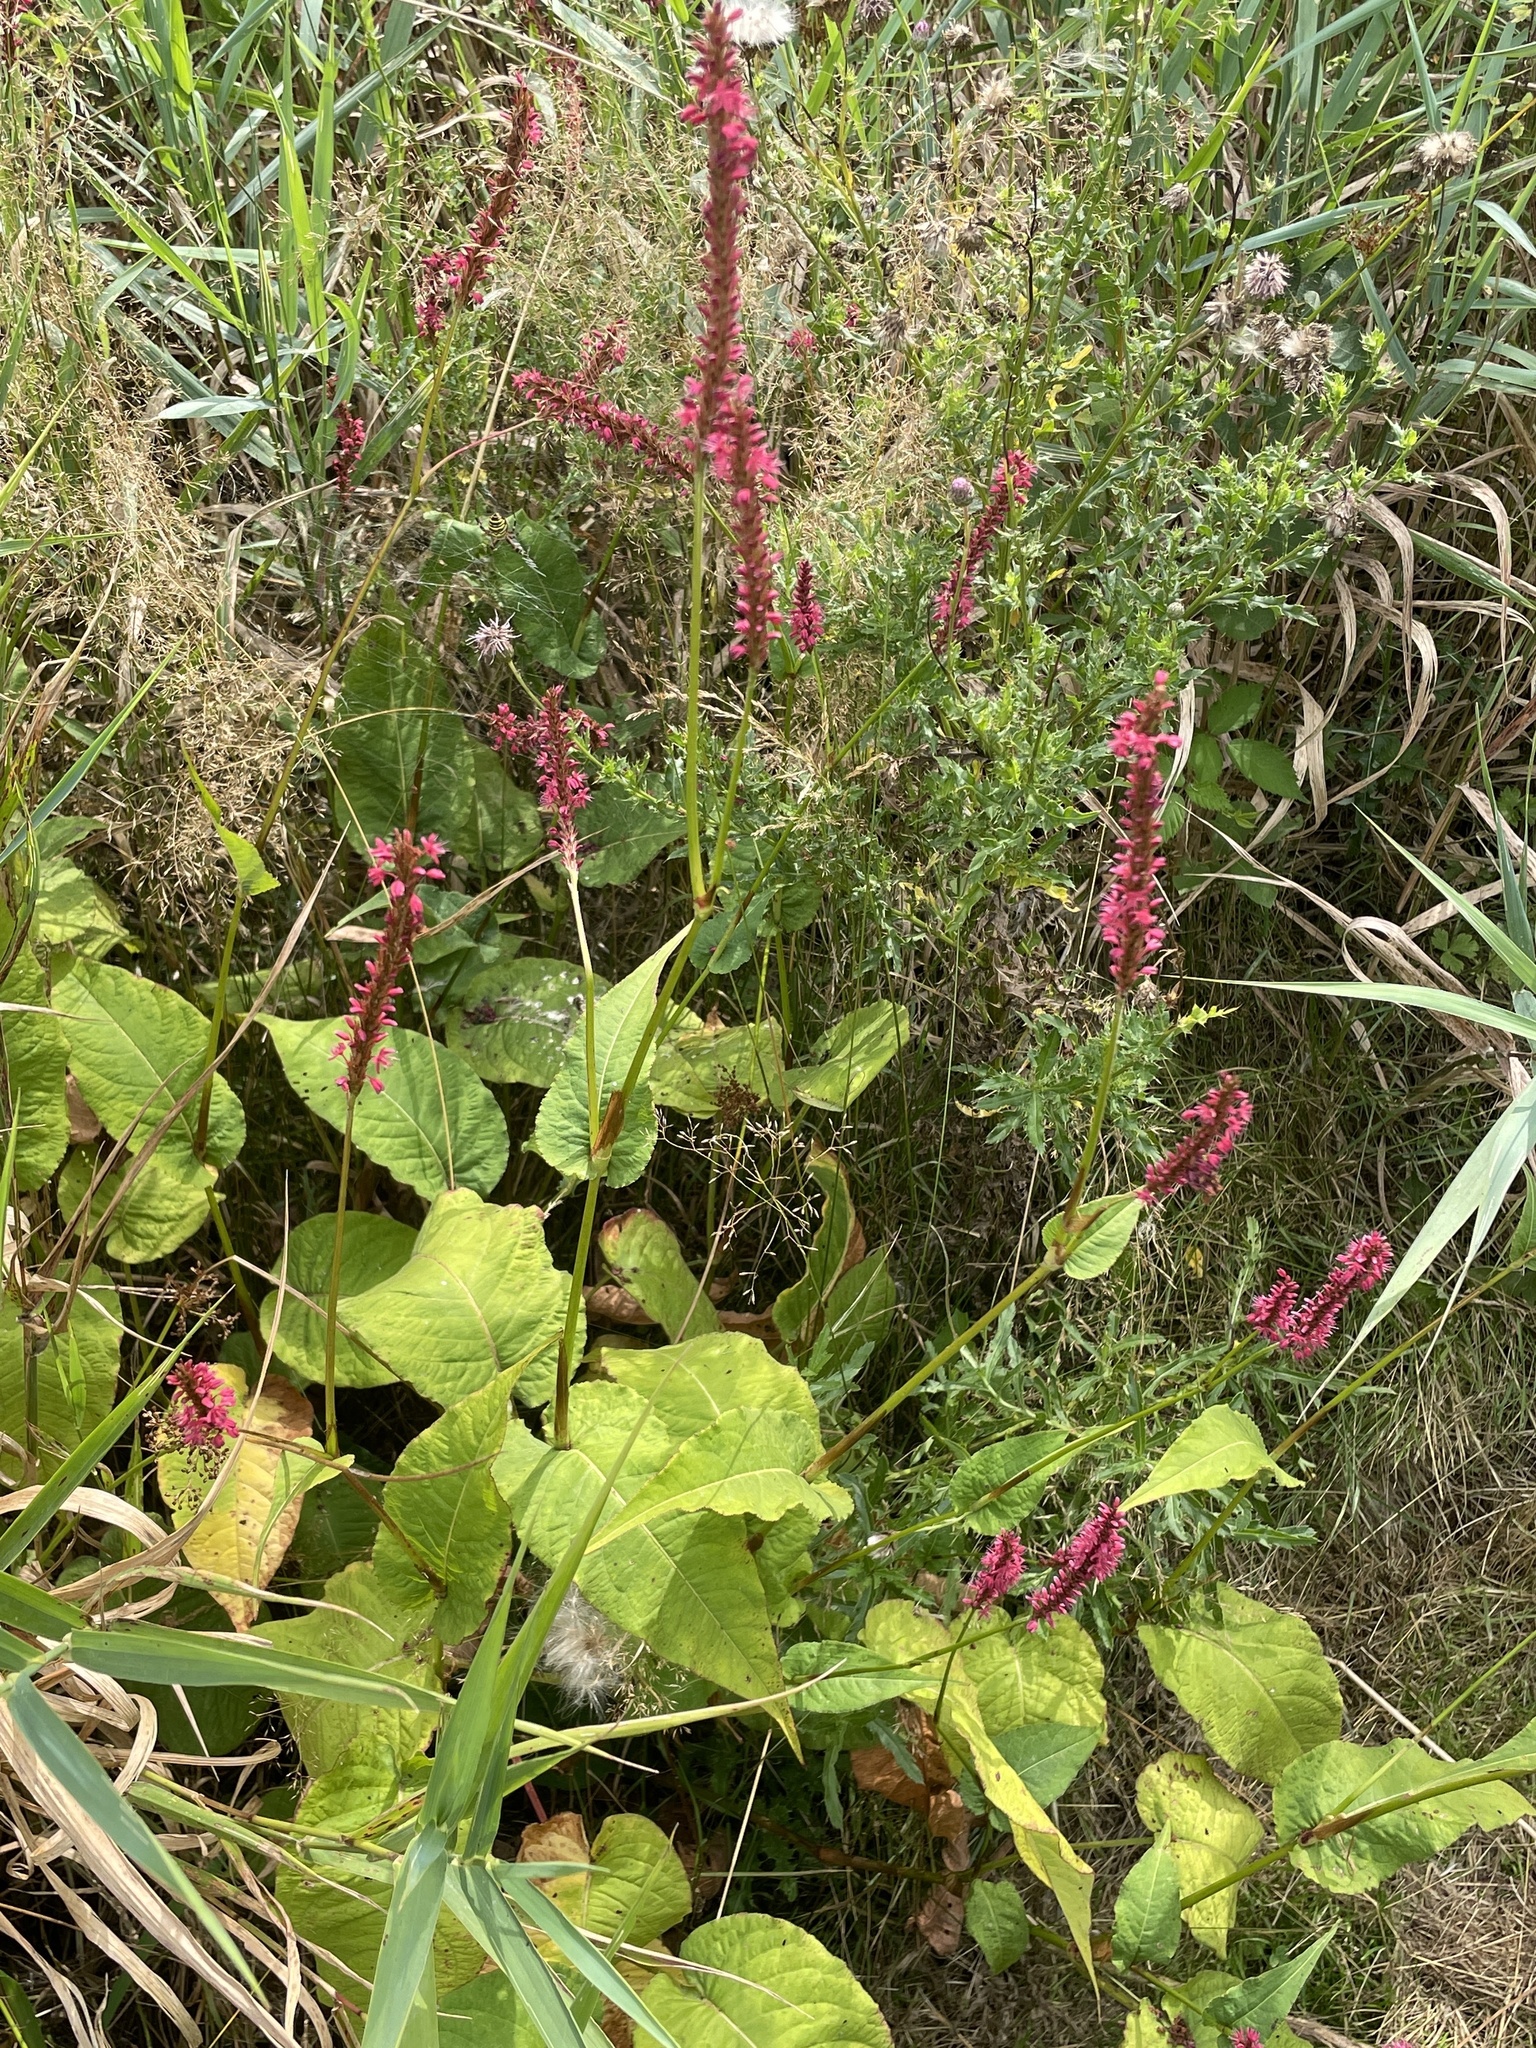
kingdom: Plantae
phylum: Tracheophyta
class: Magnoliopsida
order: Caryophyllales
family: Polygonaceae
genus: Bistorta
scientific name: Bistorta amplexicaulis
